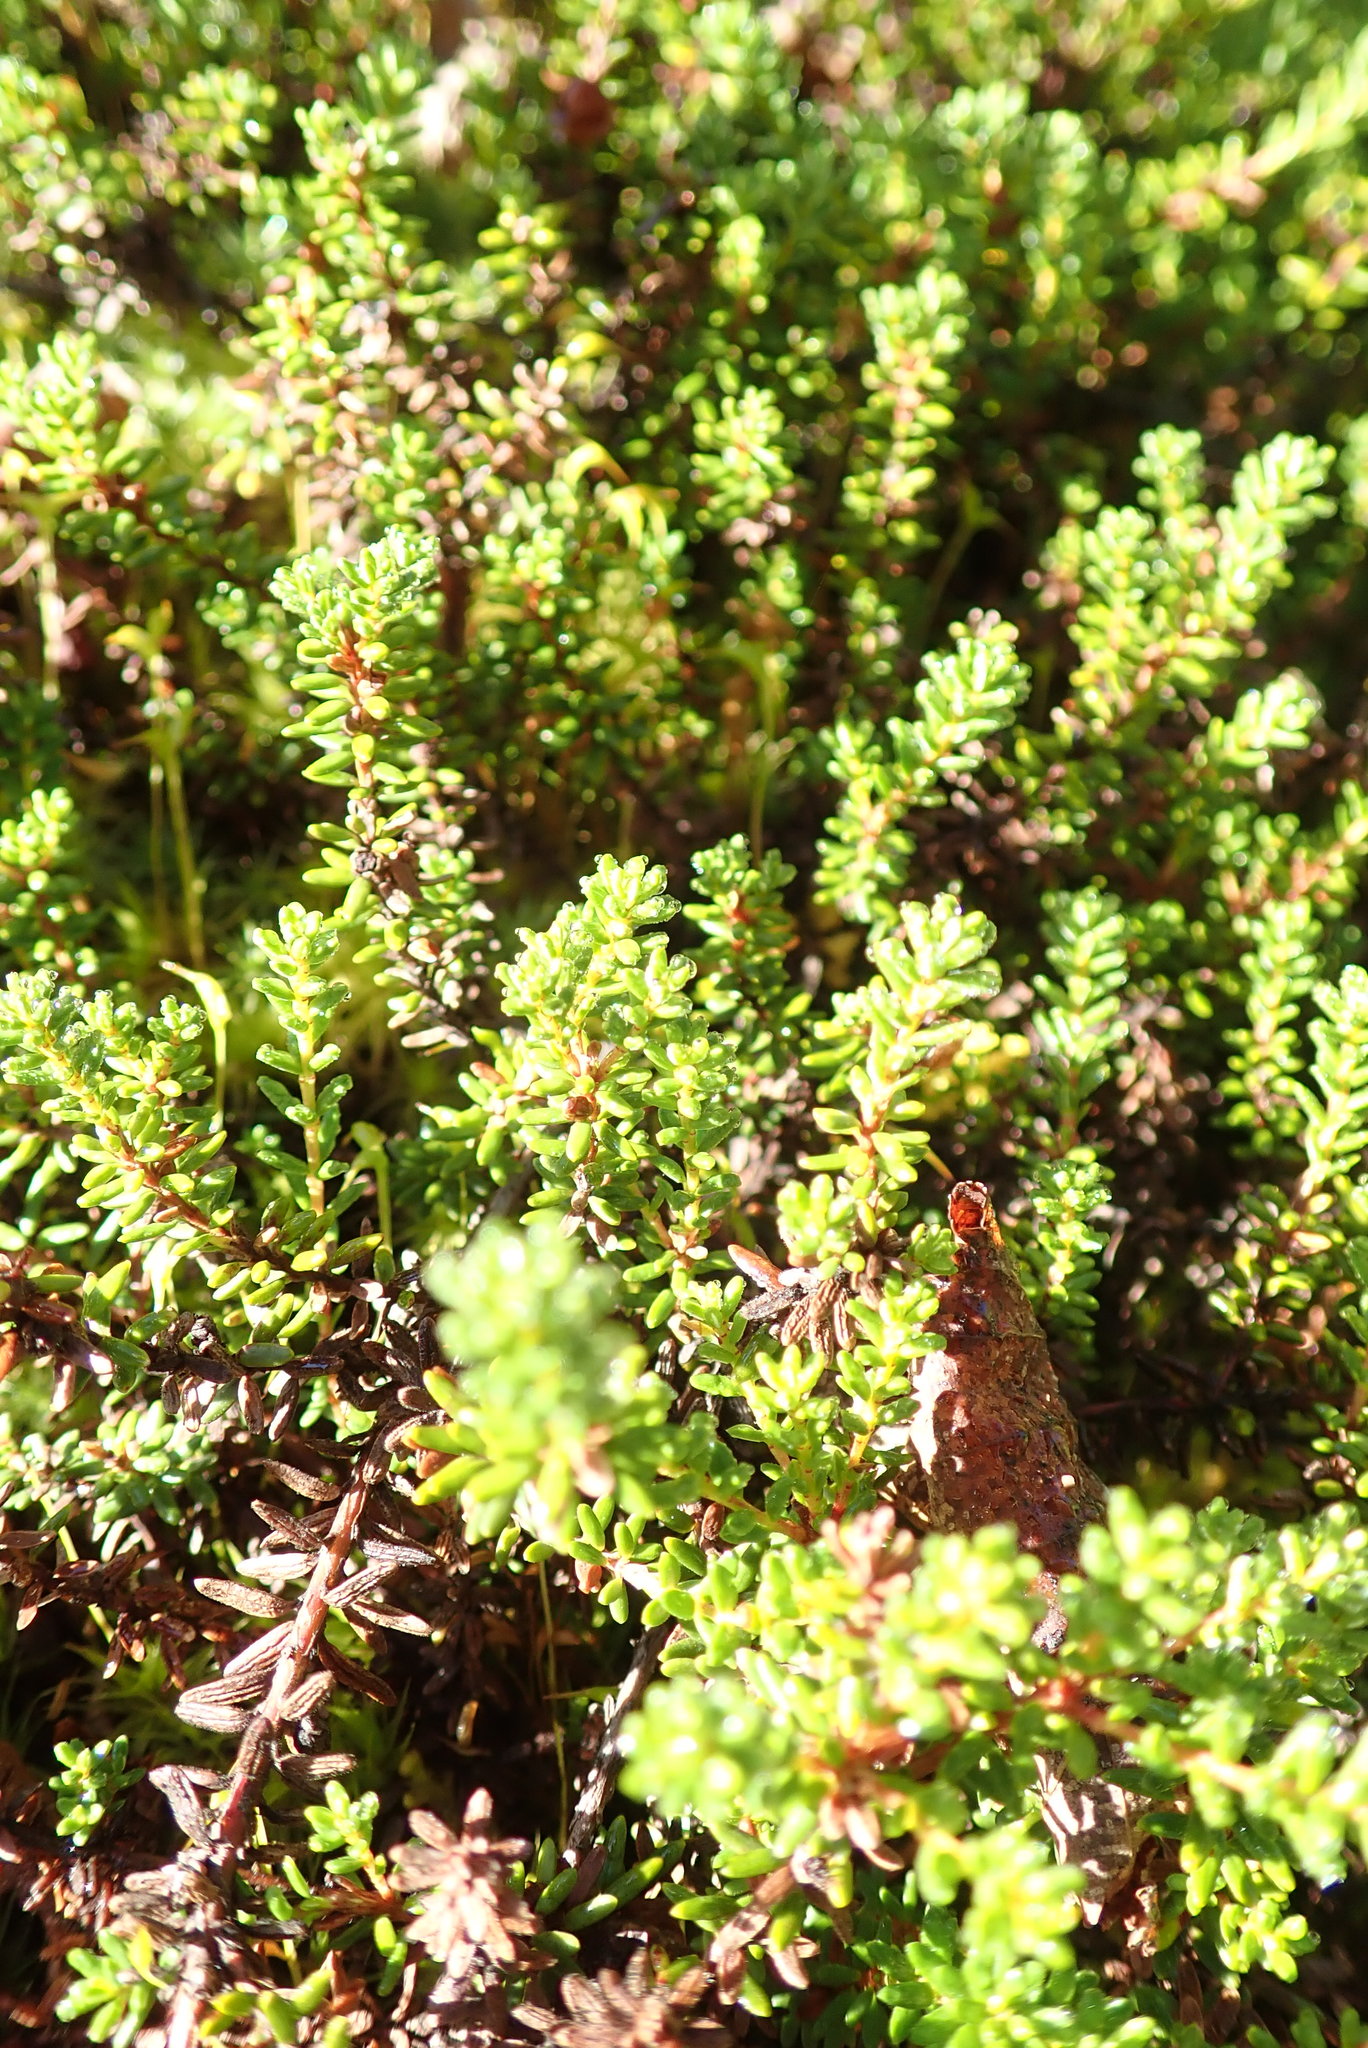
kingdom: Plantae
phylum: Tracheophyta
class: Magnoliopsida
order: Ericales
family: Ericaceae
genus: Empetrum
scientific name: Empetrum nigrum
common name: Black crowberry
